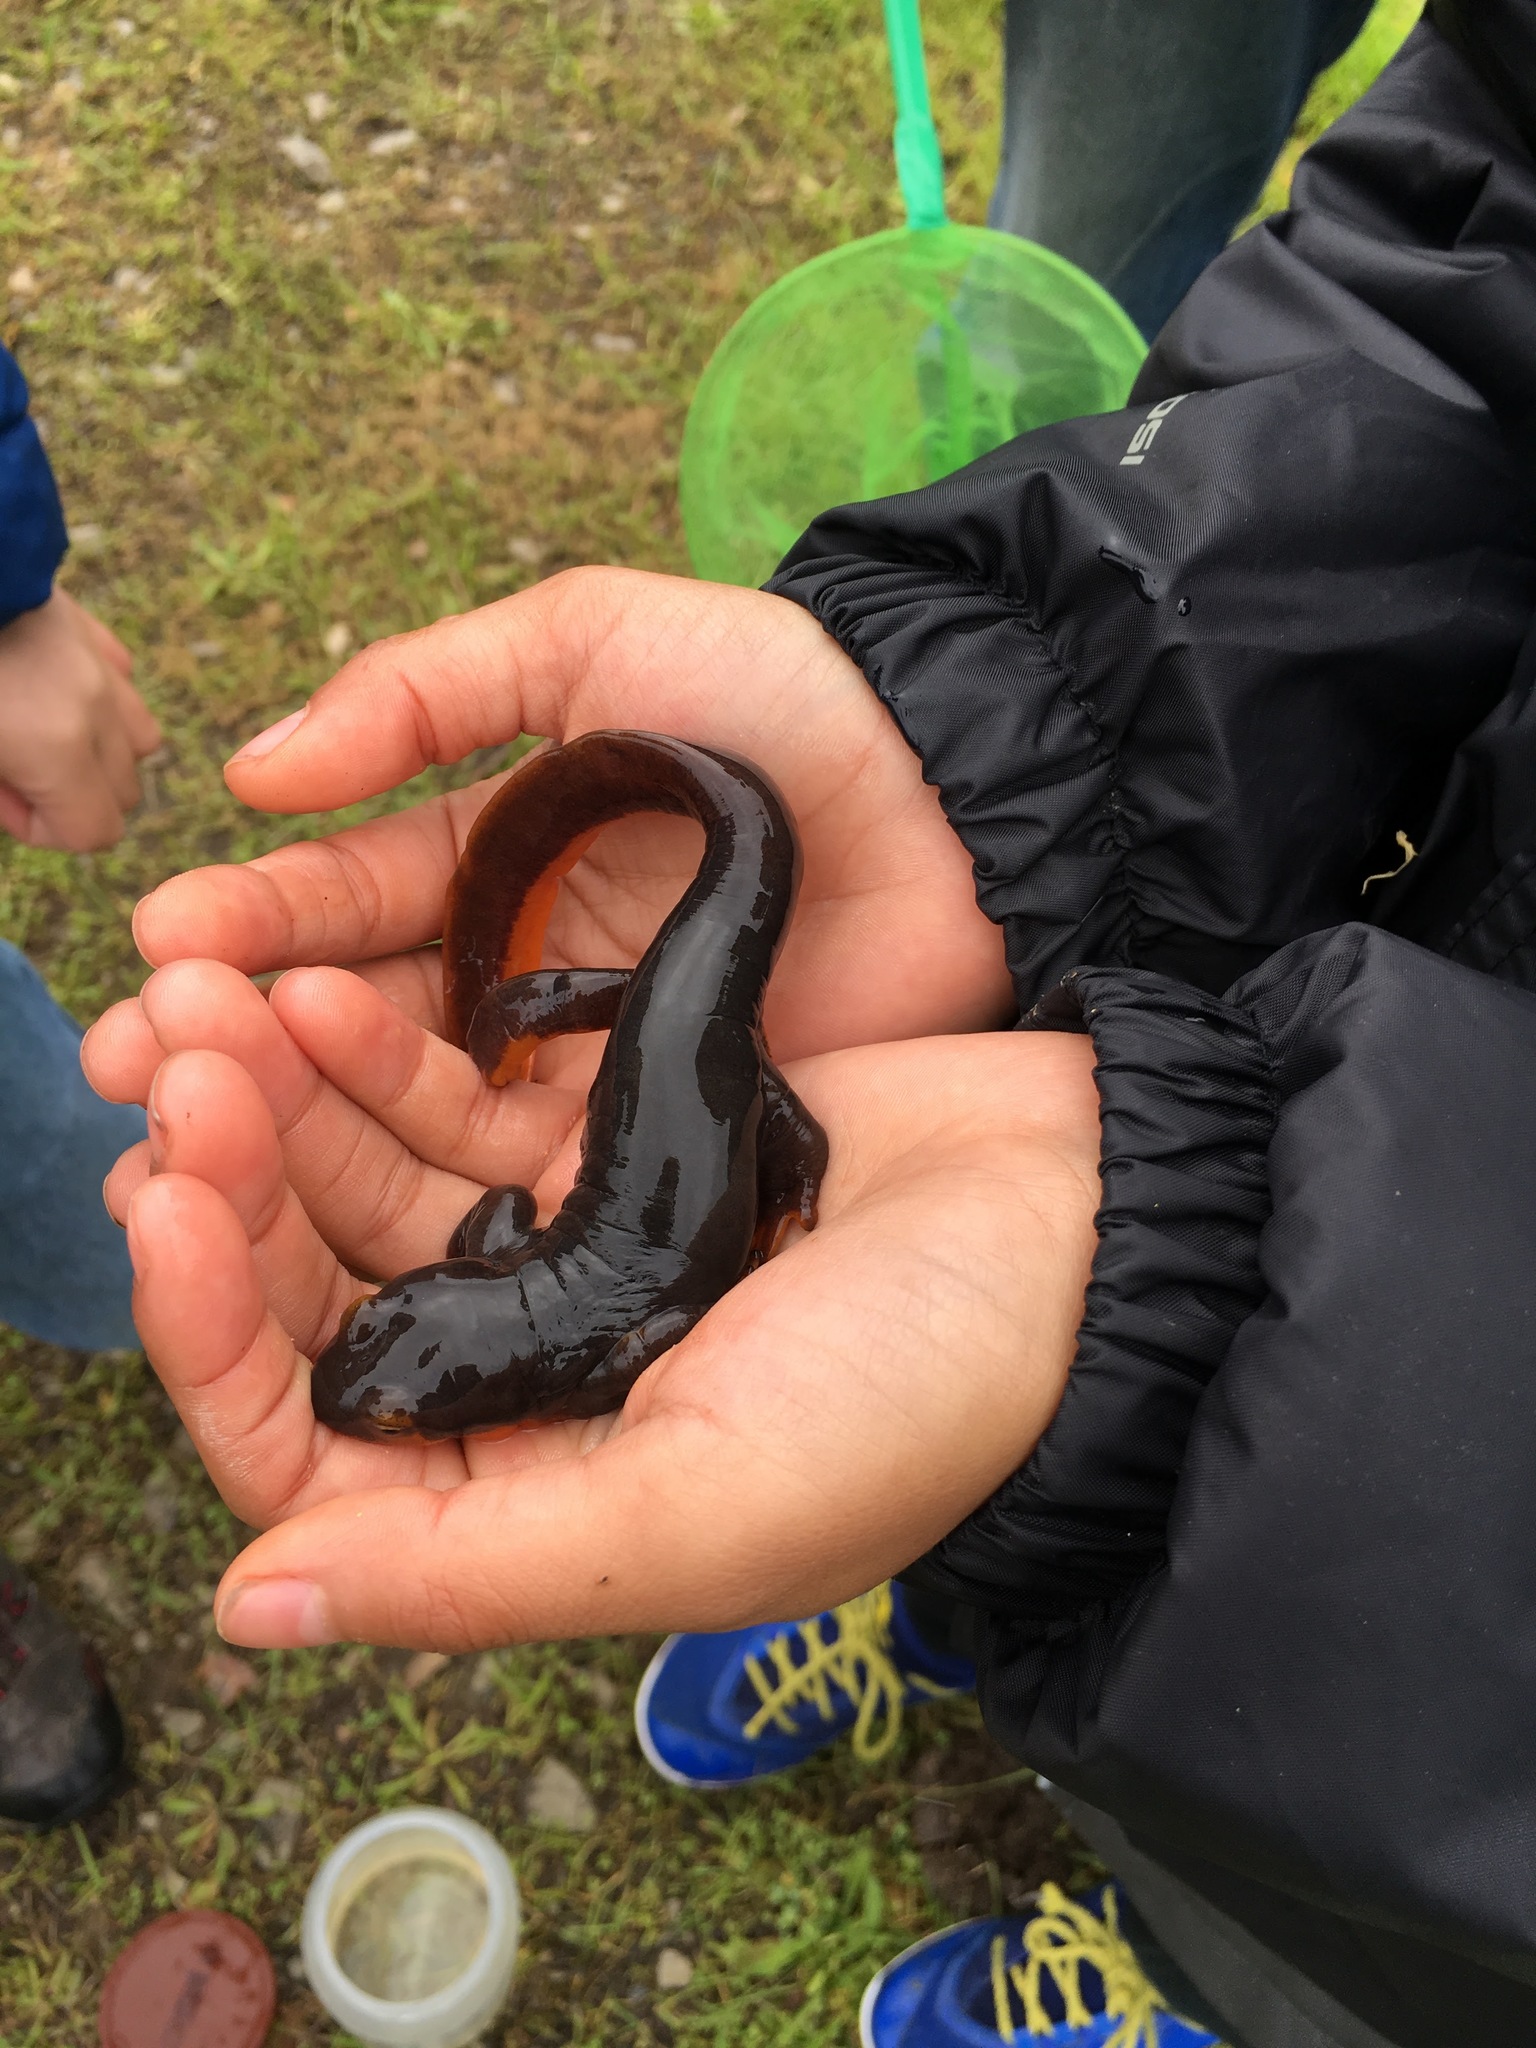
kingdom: Animalia
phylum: Chordata
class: Amphibia
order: Caudata
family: Salamandridae
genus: Taricha
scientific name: Taricha torosa
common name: California newt
